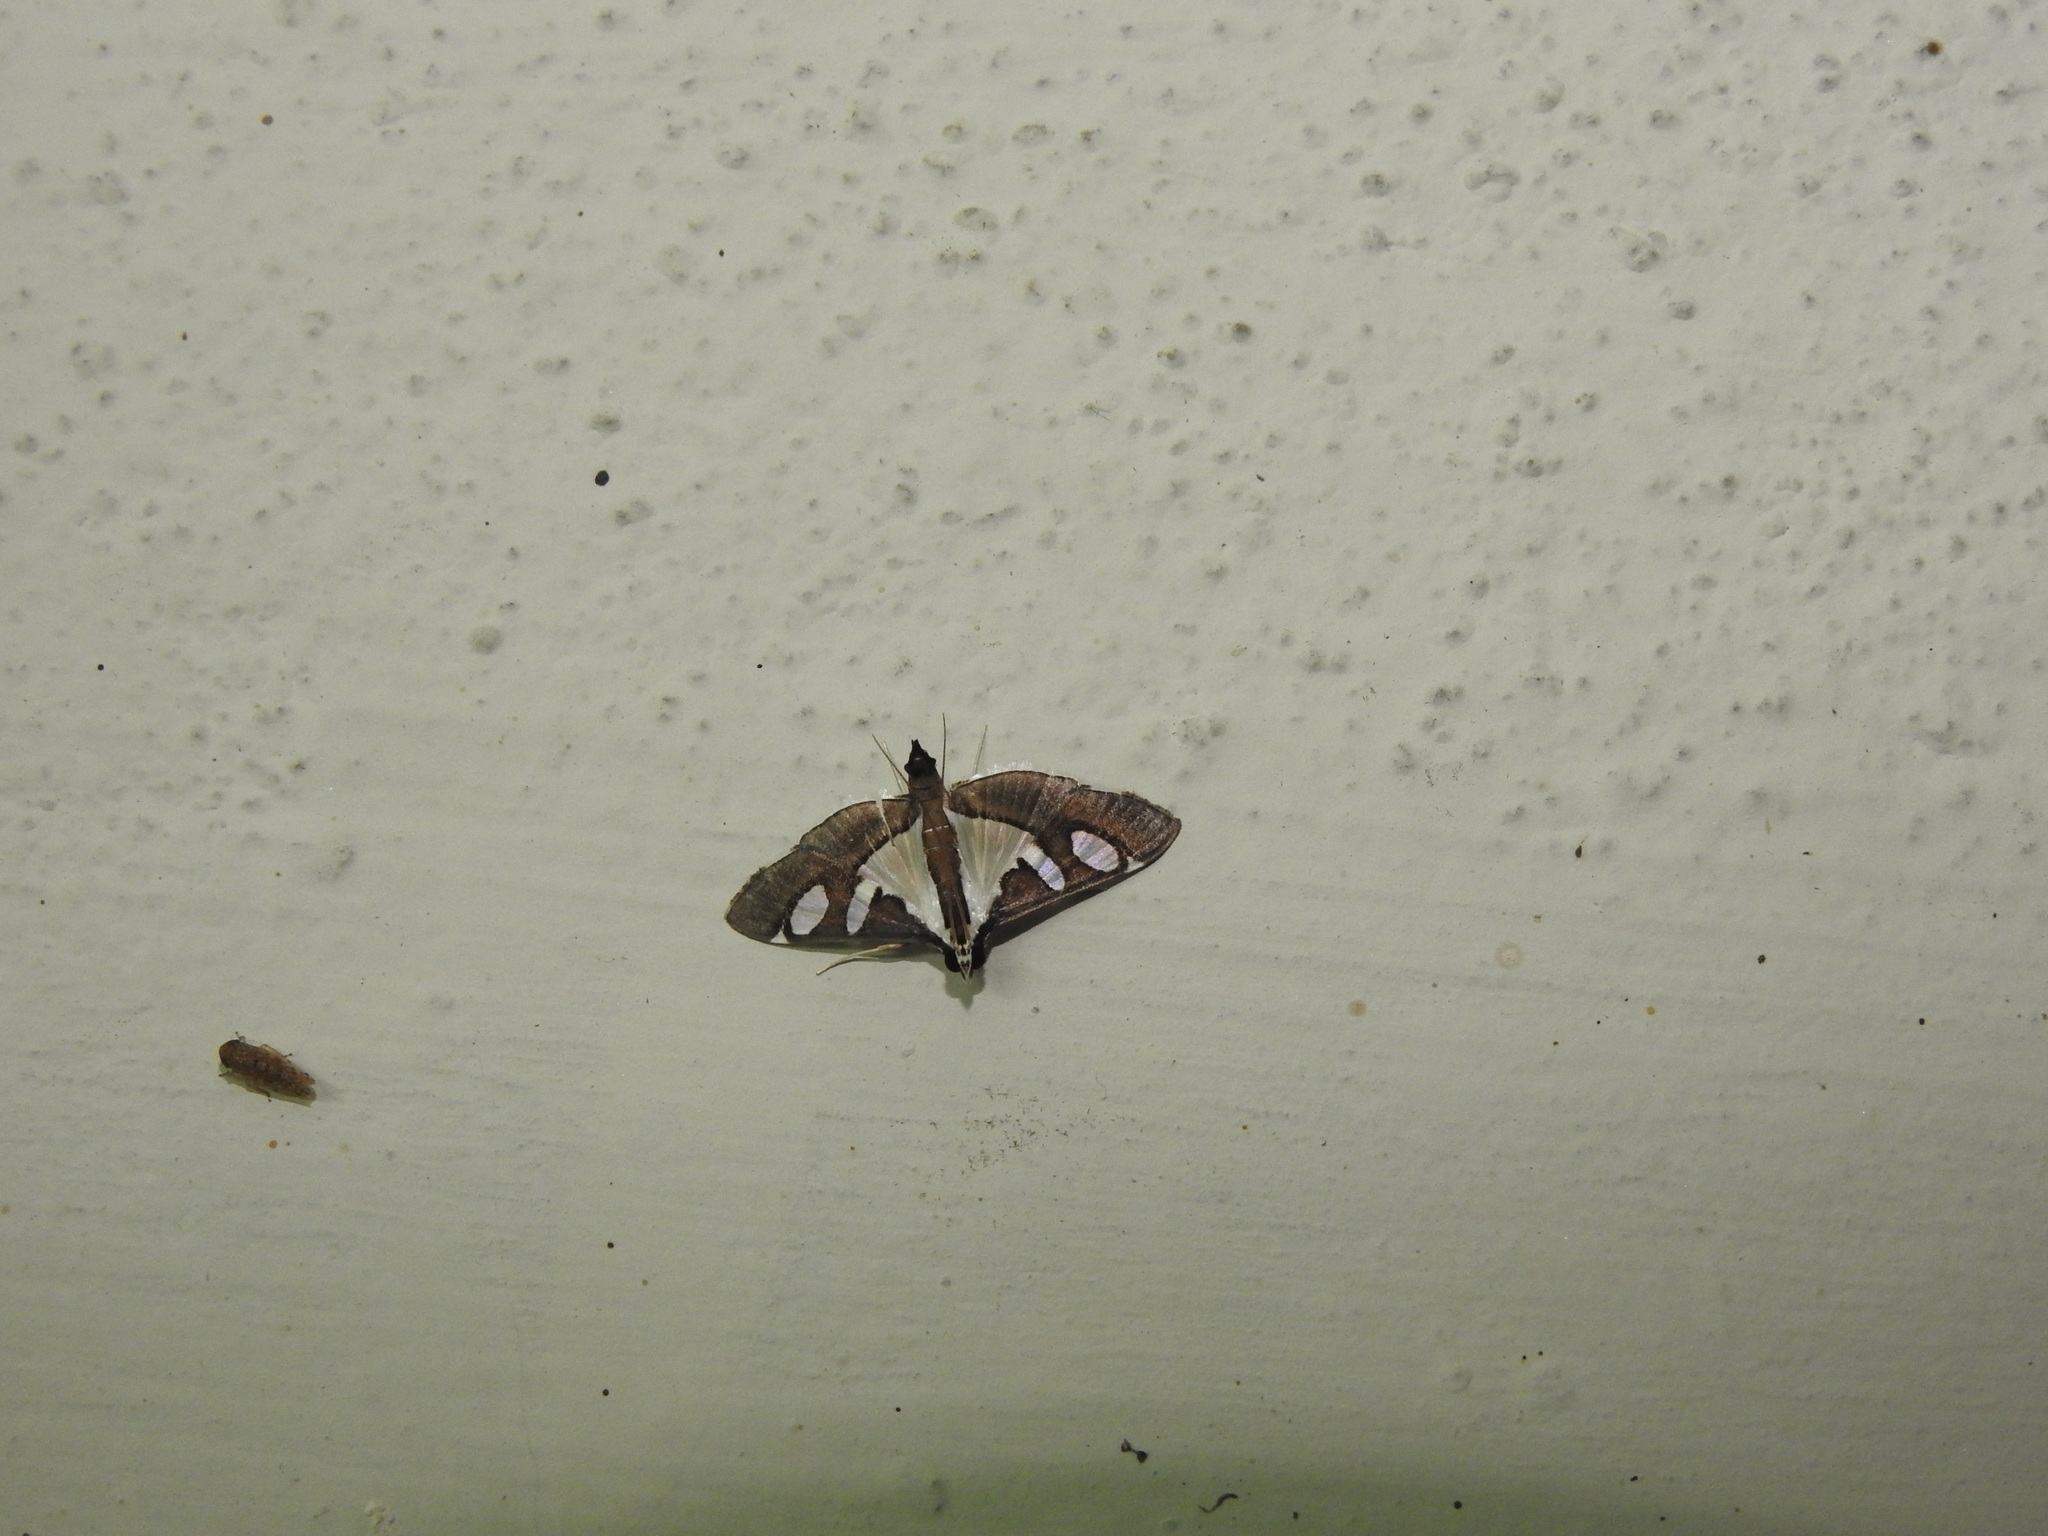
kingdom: Animalia
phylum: Arthropoda
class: Insecta
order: Lepidoptera
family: Crambidae
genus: Glyphodes
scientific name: Glyphodes bicolor
